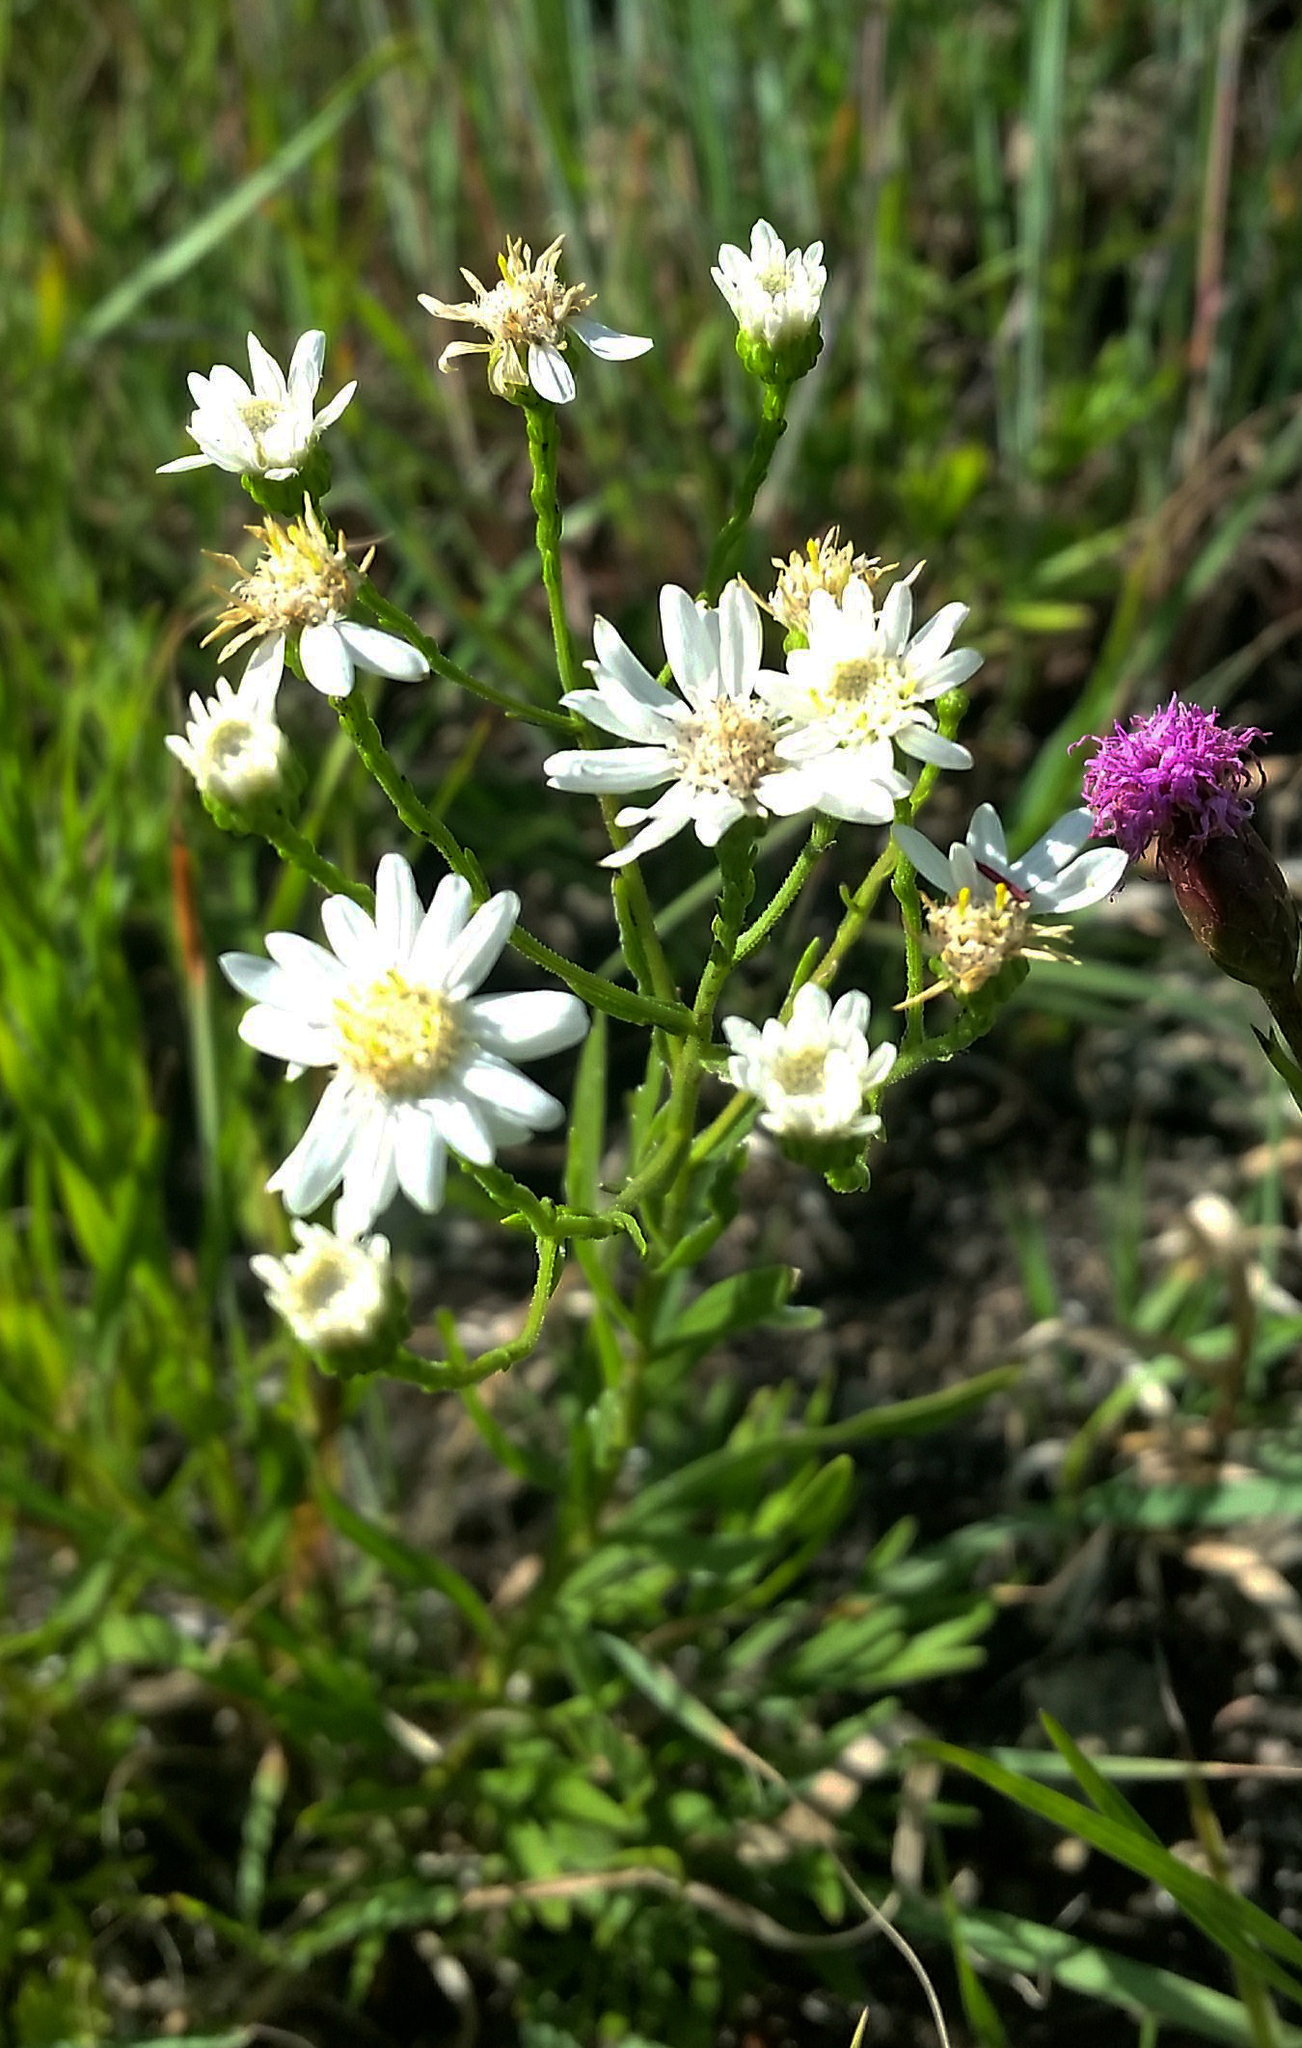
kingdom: Plantae
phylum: Tracheophyta
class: Magnoliopsida
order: Asterales
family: Asteraceae
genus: Solidago
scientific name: Solidago ptarmicoides
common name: White flat-top goldenrod
